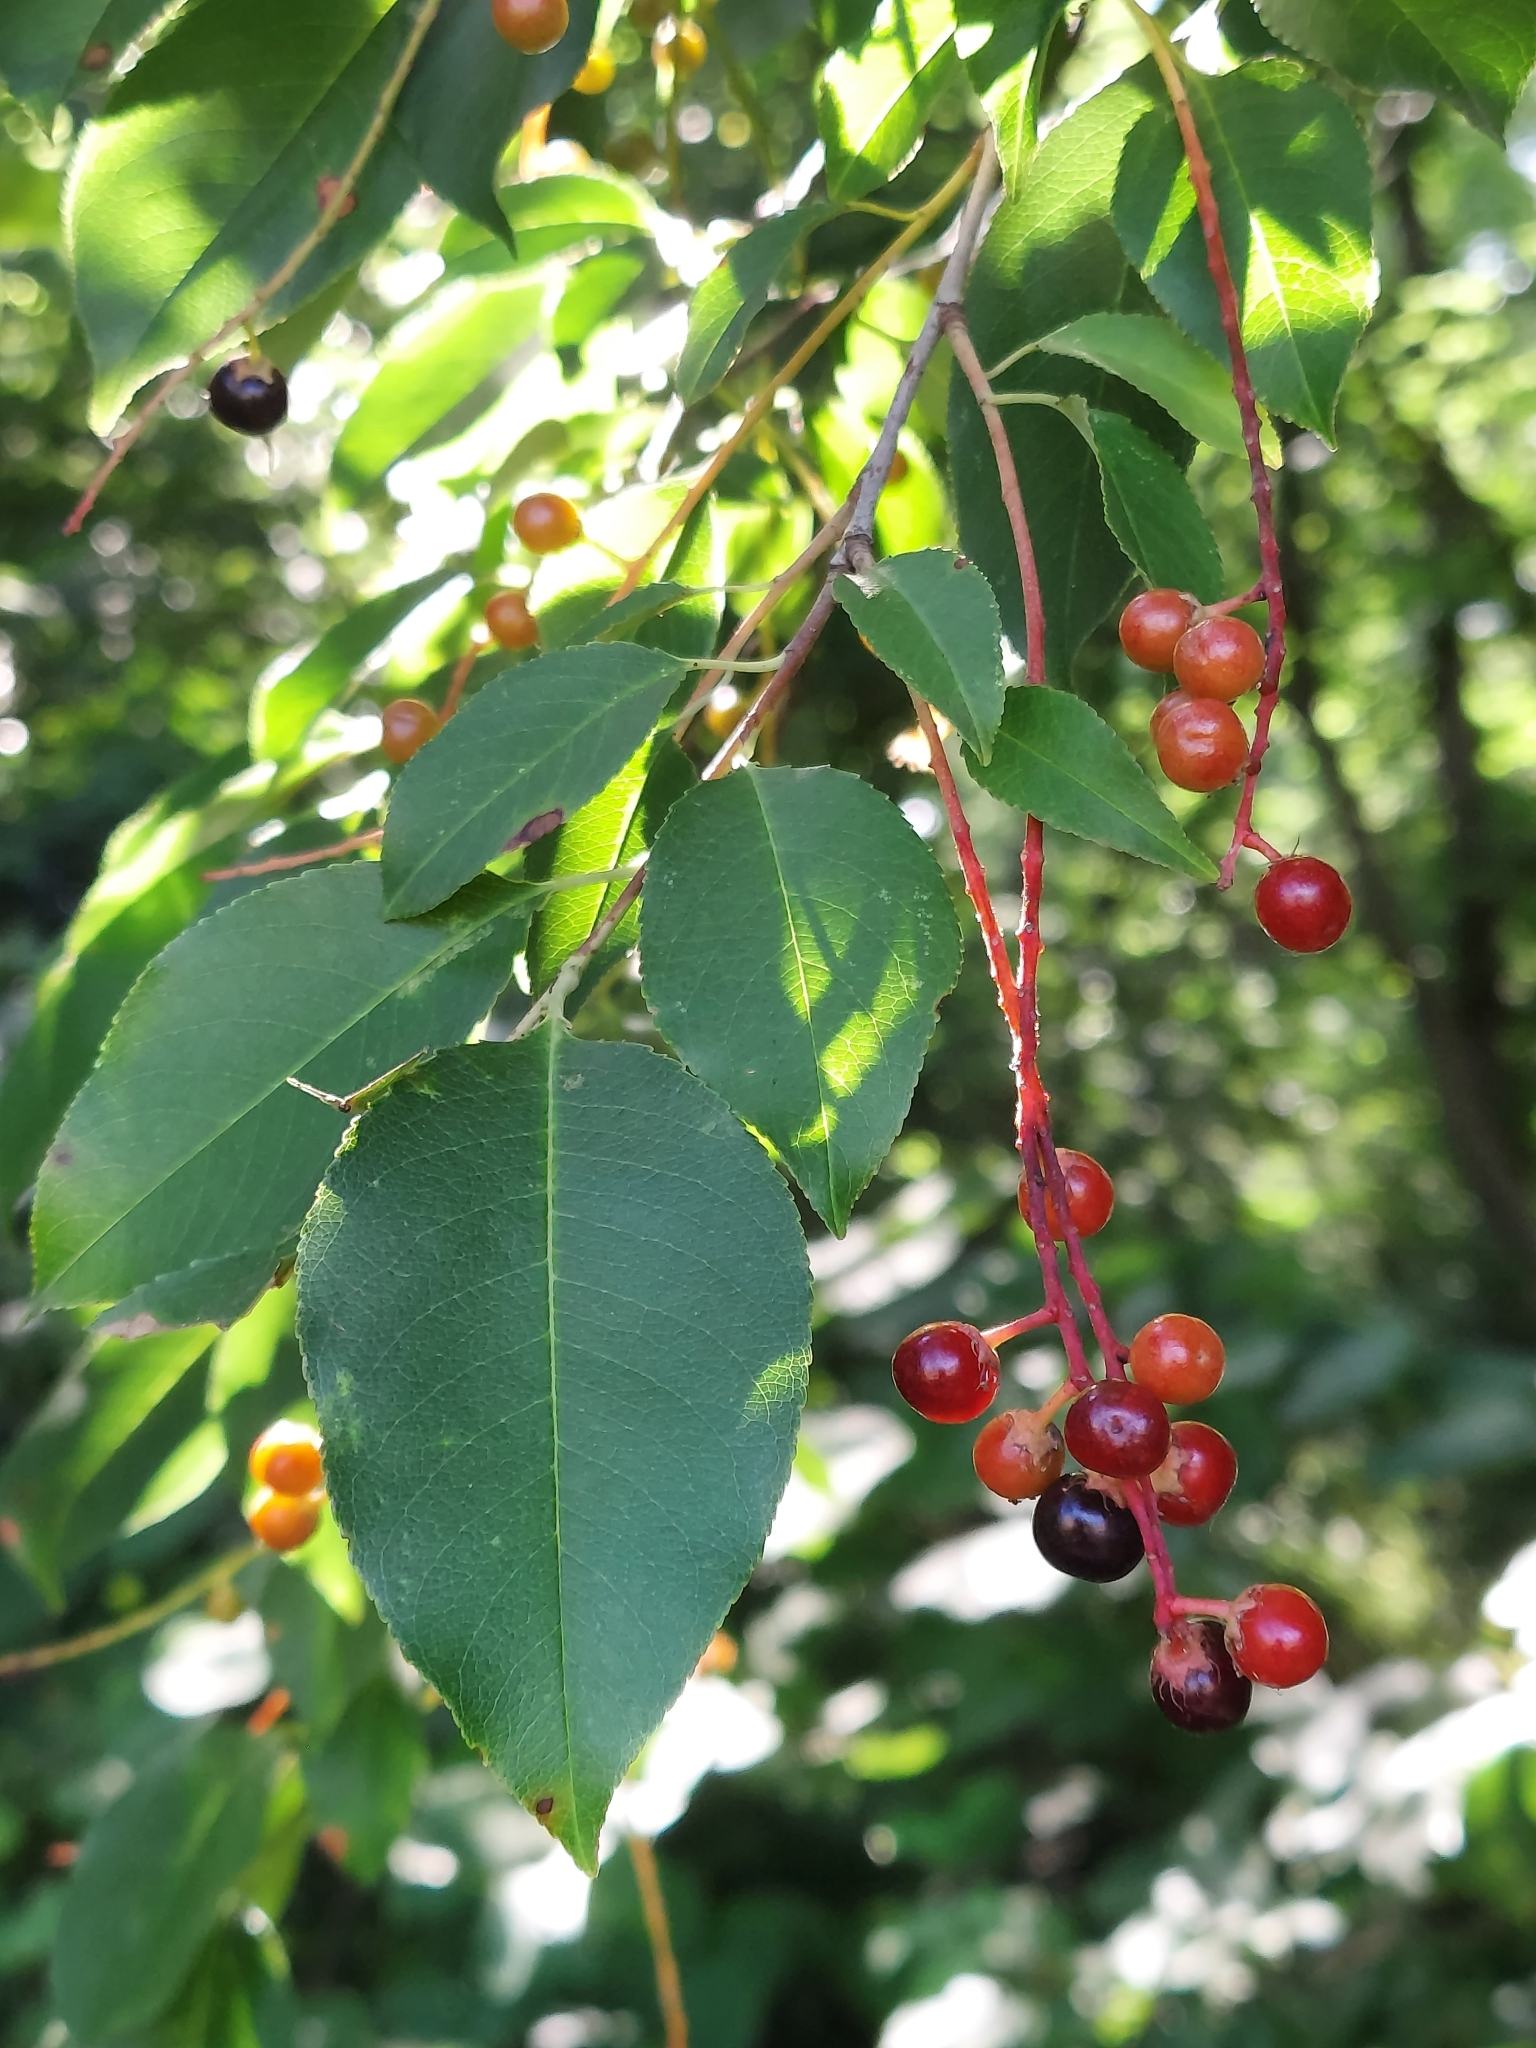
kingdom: Plantae
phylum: Tracheophyta
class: Magnoliopsida
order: Rosales
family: Rosaceae
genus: Prunus
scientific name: Prunus serotina
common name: Black cherry
